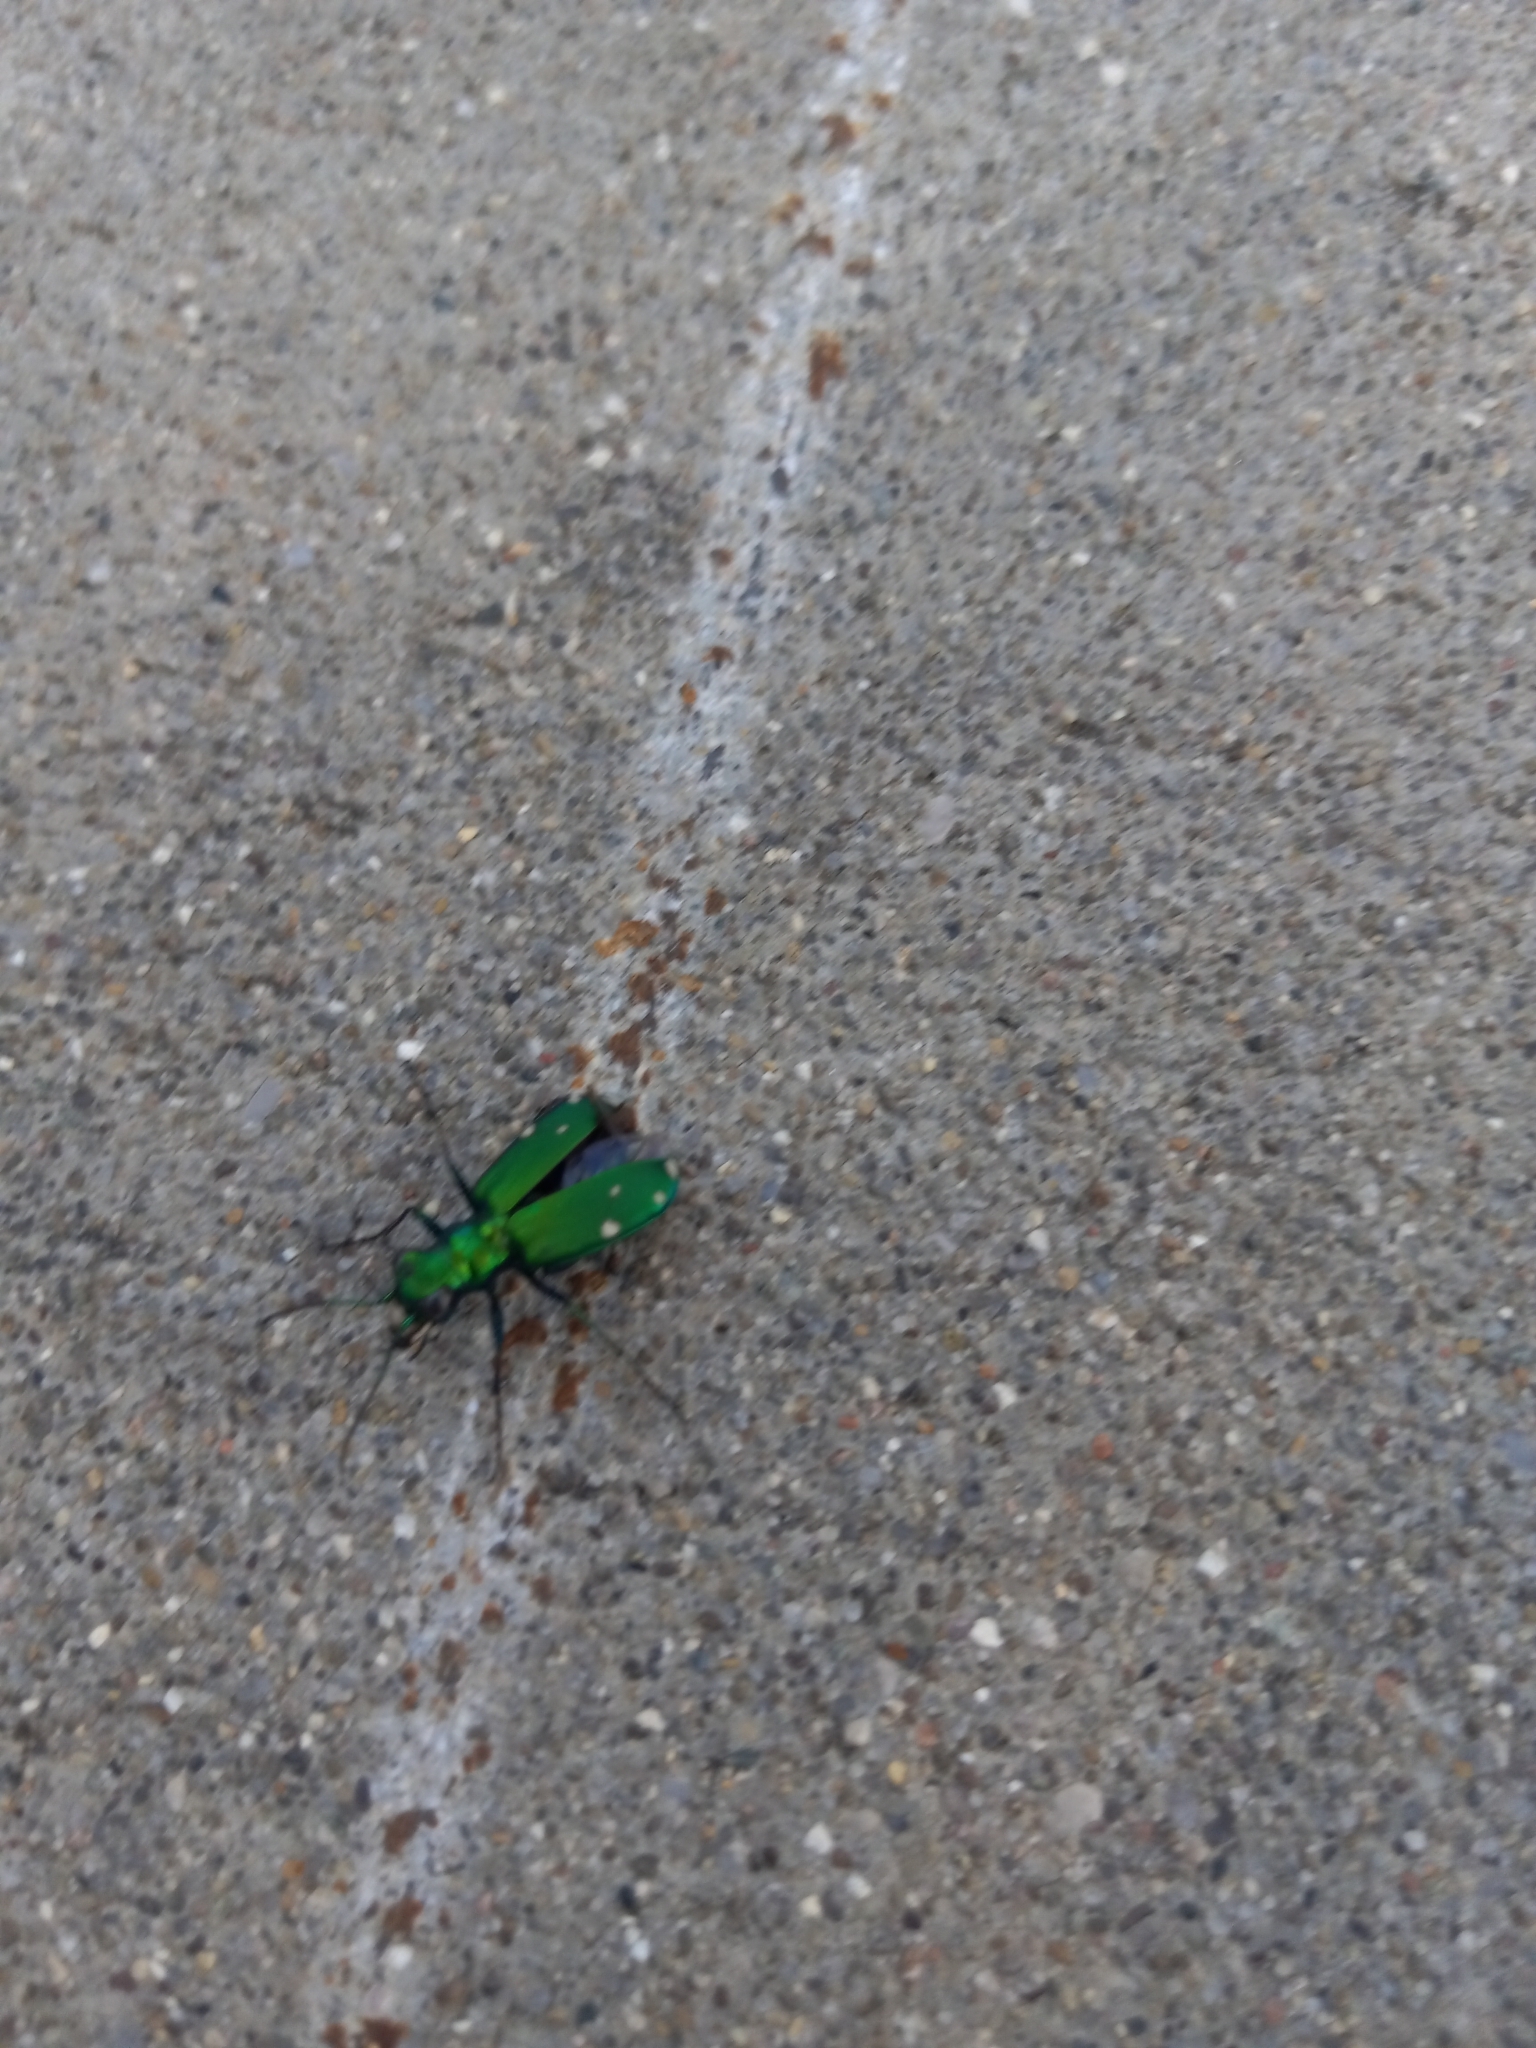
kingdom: Animalia
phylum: Arthropoda
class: Insecta
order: Coleoptera
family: Carabidae
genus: Cicindela
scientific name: Cicindela sexguttata
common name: Six-spotted tiger beetle
